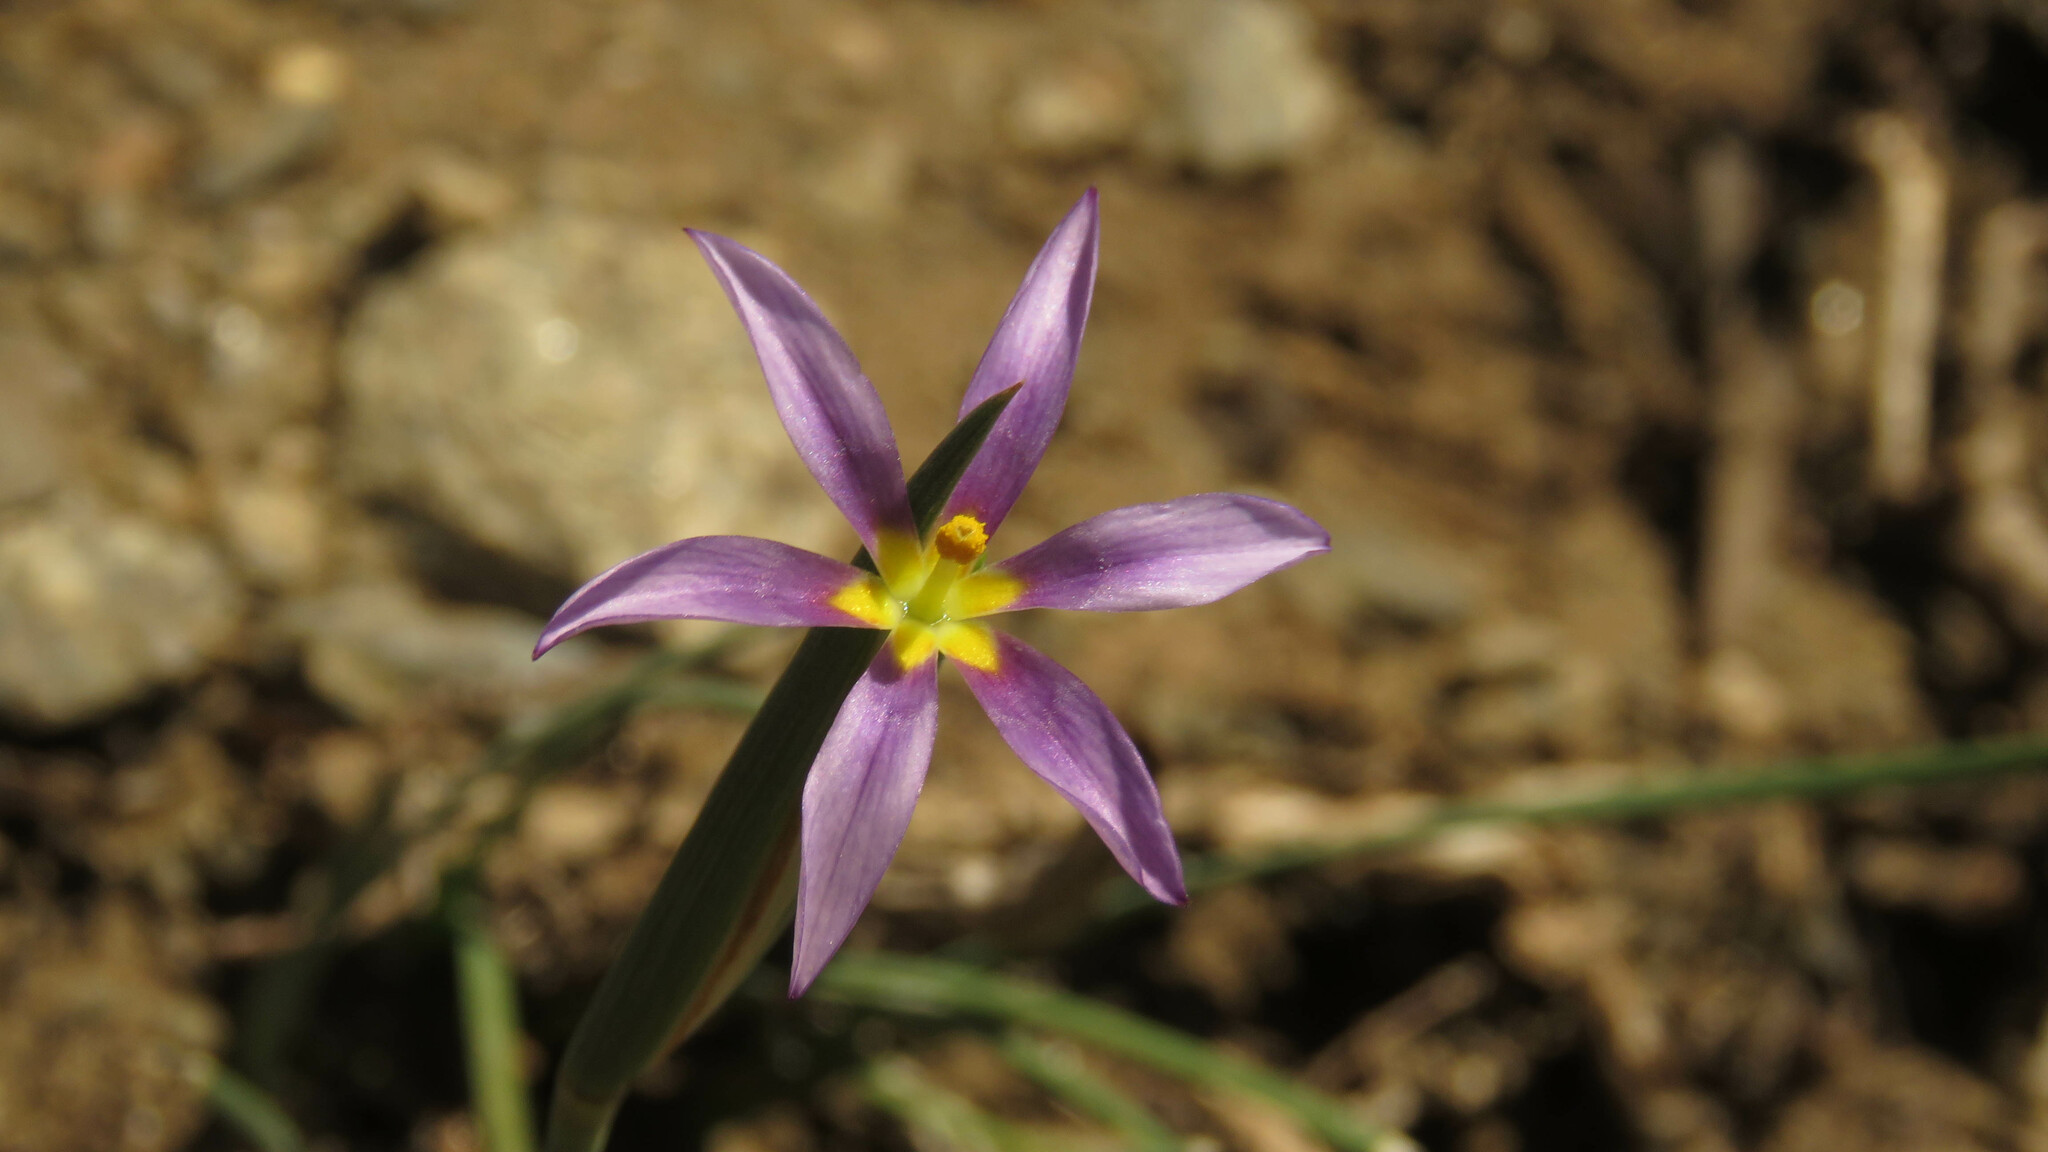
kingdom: Plantae
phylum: Tracheophyta
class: Liliopsida
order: Asparagales
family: Iridaceae
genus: Solenomelus
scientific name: Solenomelus segethi
